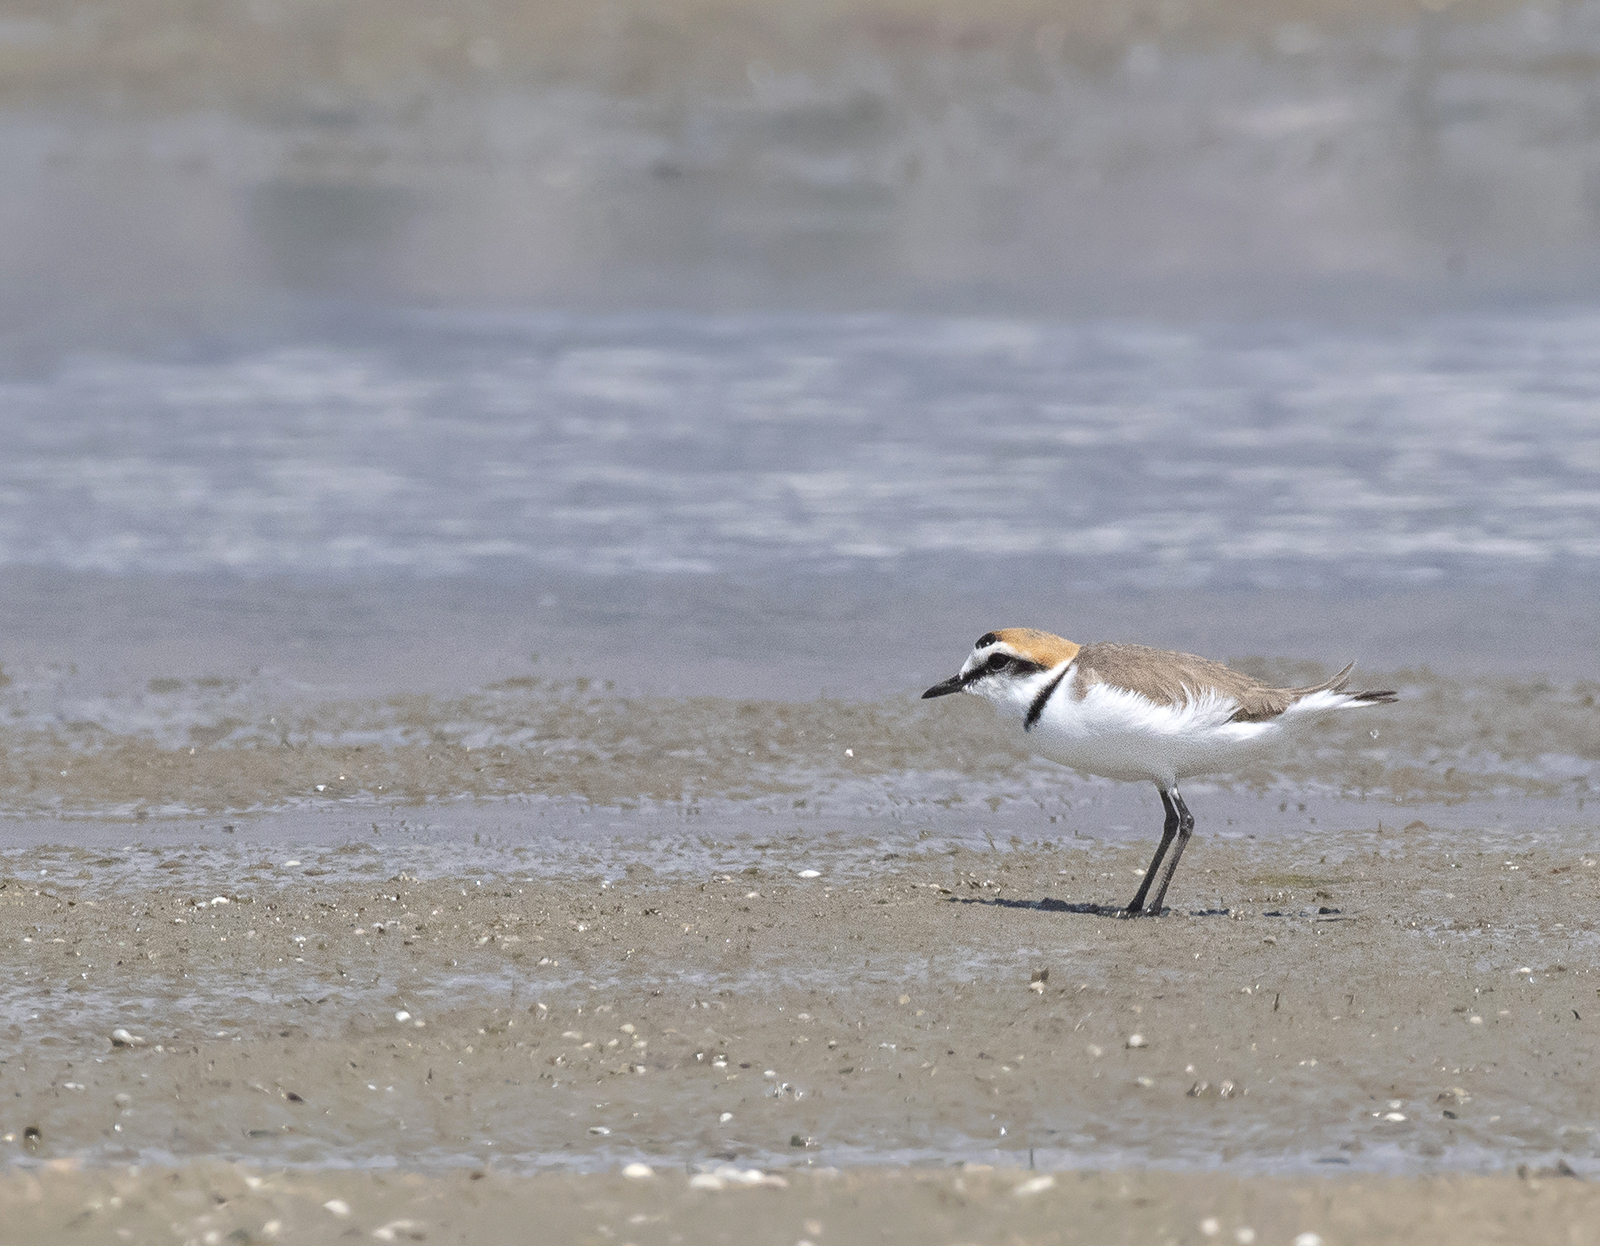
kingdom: Animalia
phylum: Chordata
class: Aves
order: Charadriiformes
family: Charadriidae
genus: Charadrius
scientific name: Charadrius alexandrinus
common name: Kentish plover
